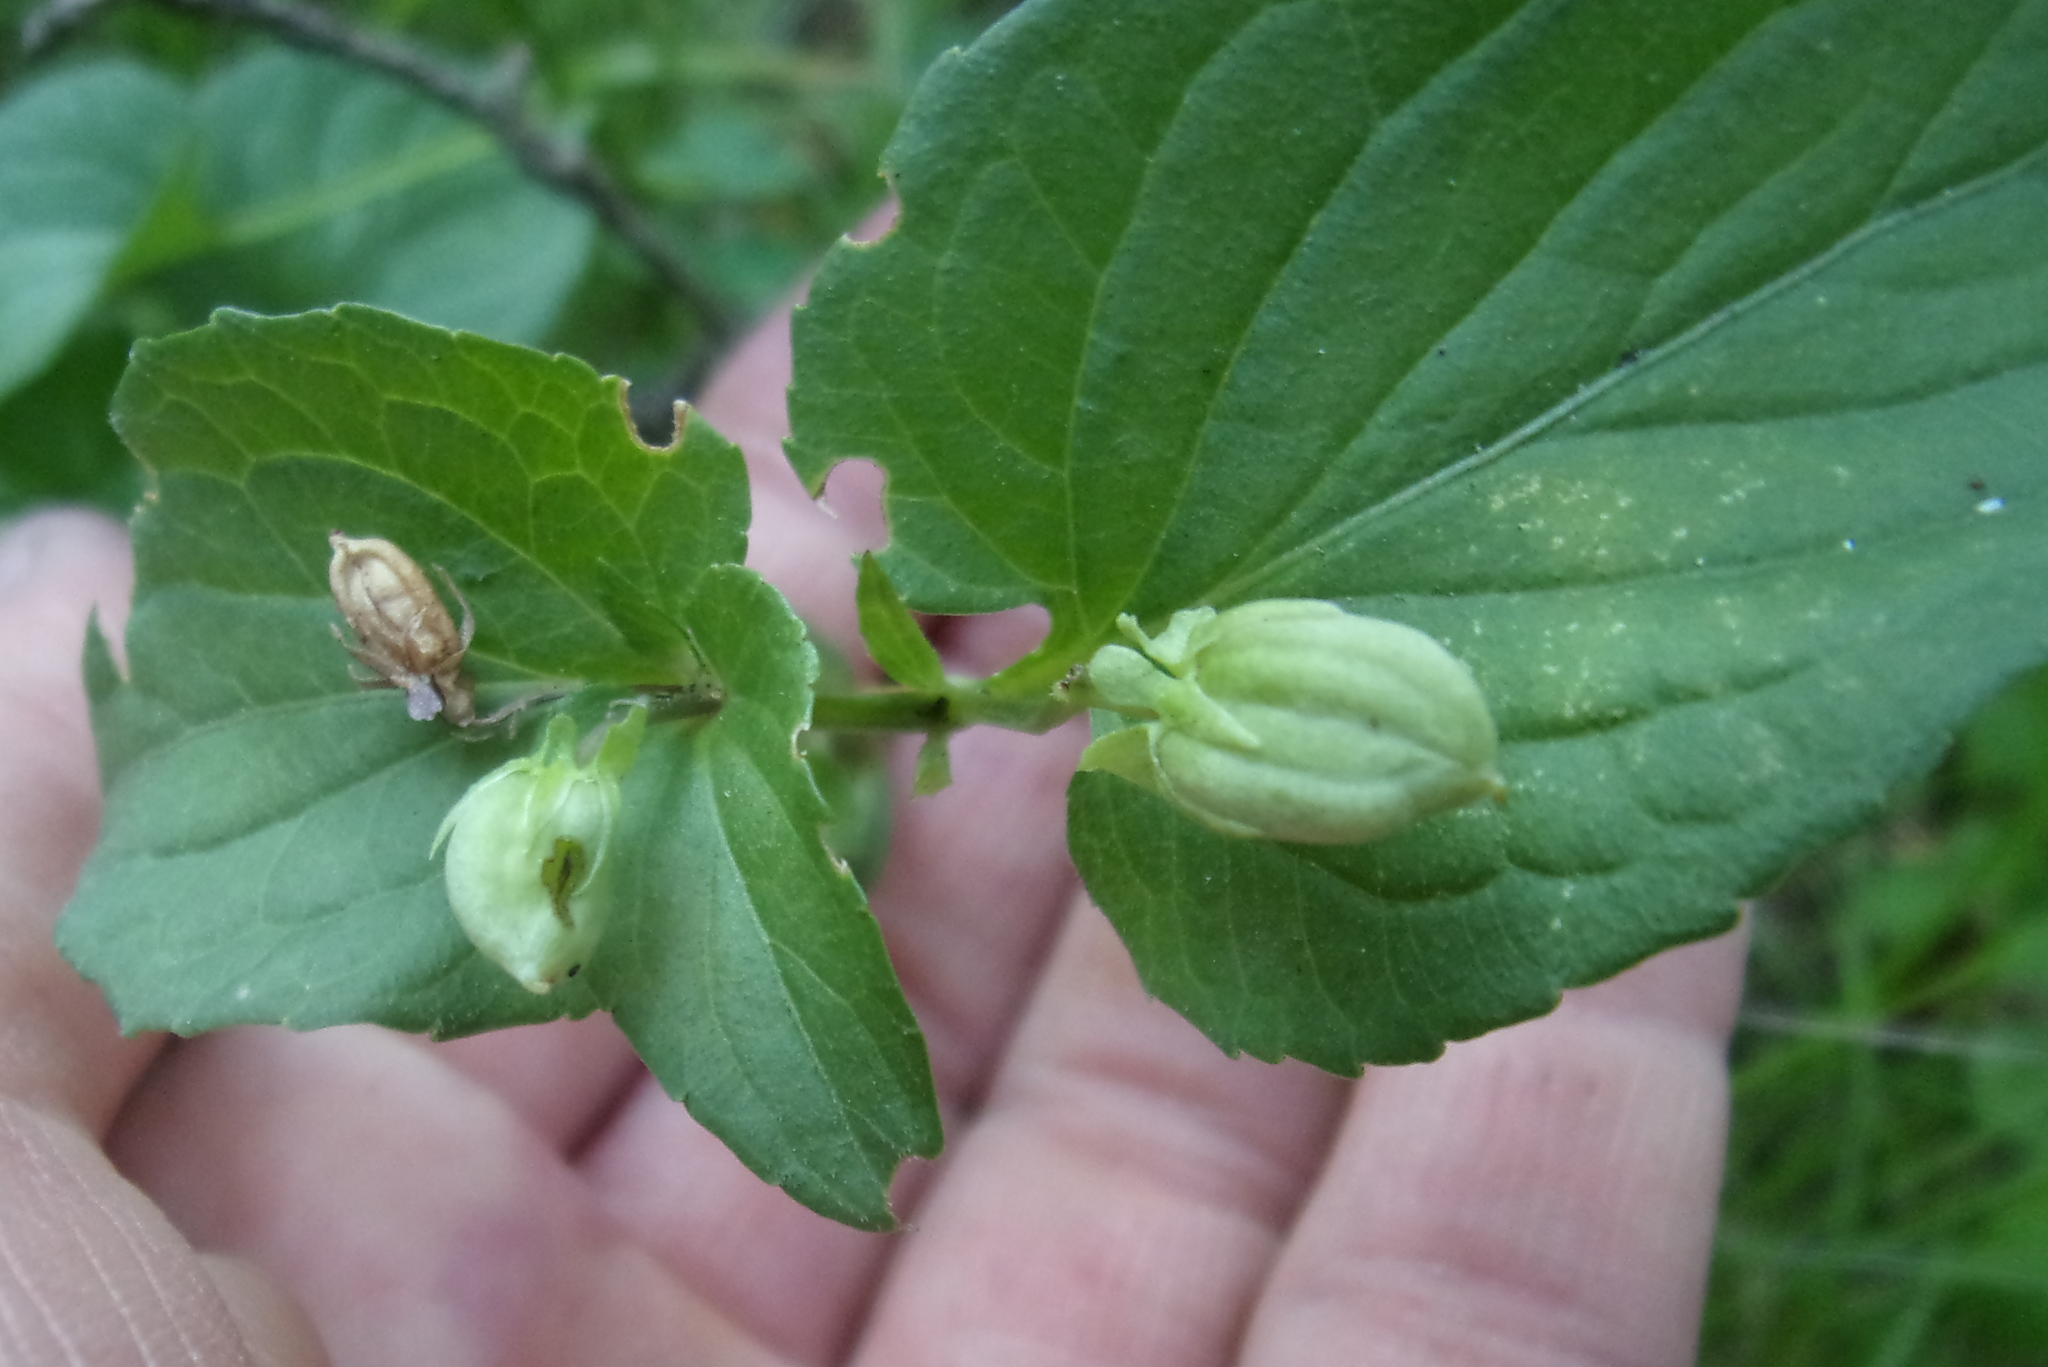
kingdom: Plantae
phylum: Tracheophyta
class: Magnoliopsida
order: Malpighiales
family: Violaceae
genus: Viola
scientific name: Viola
